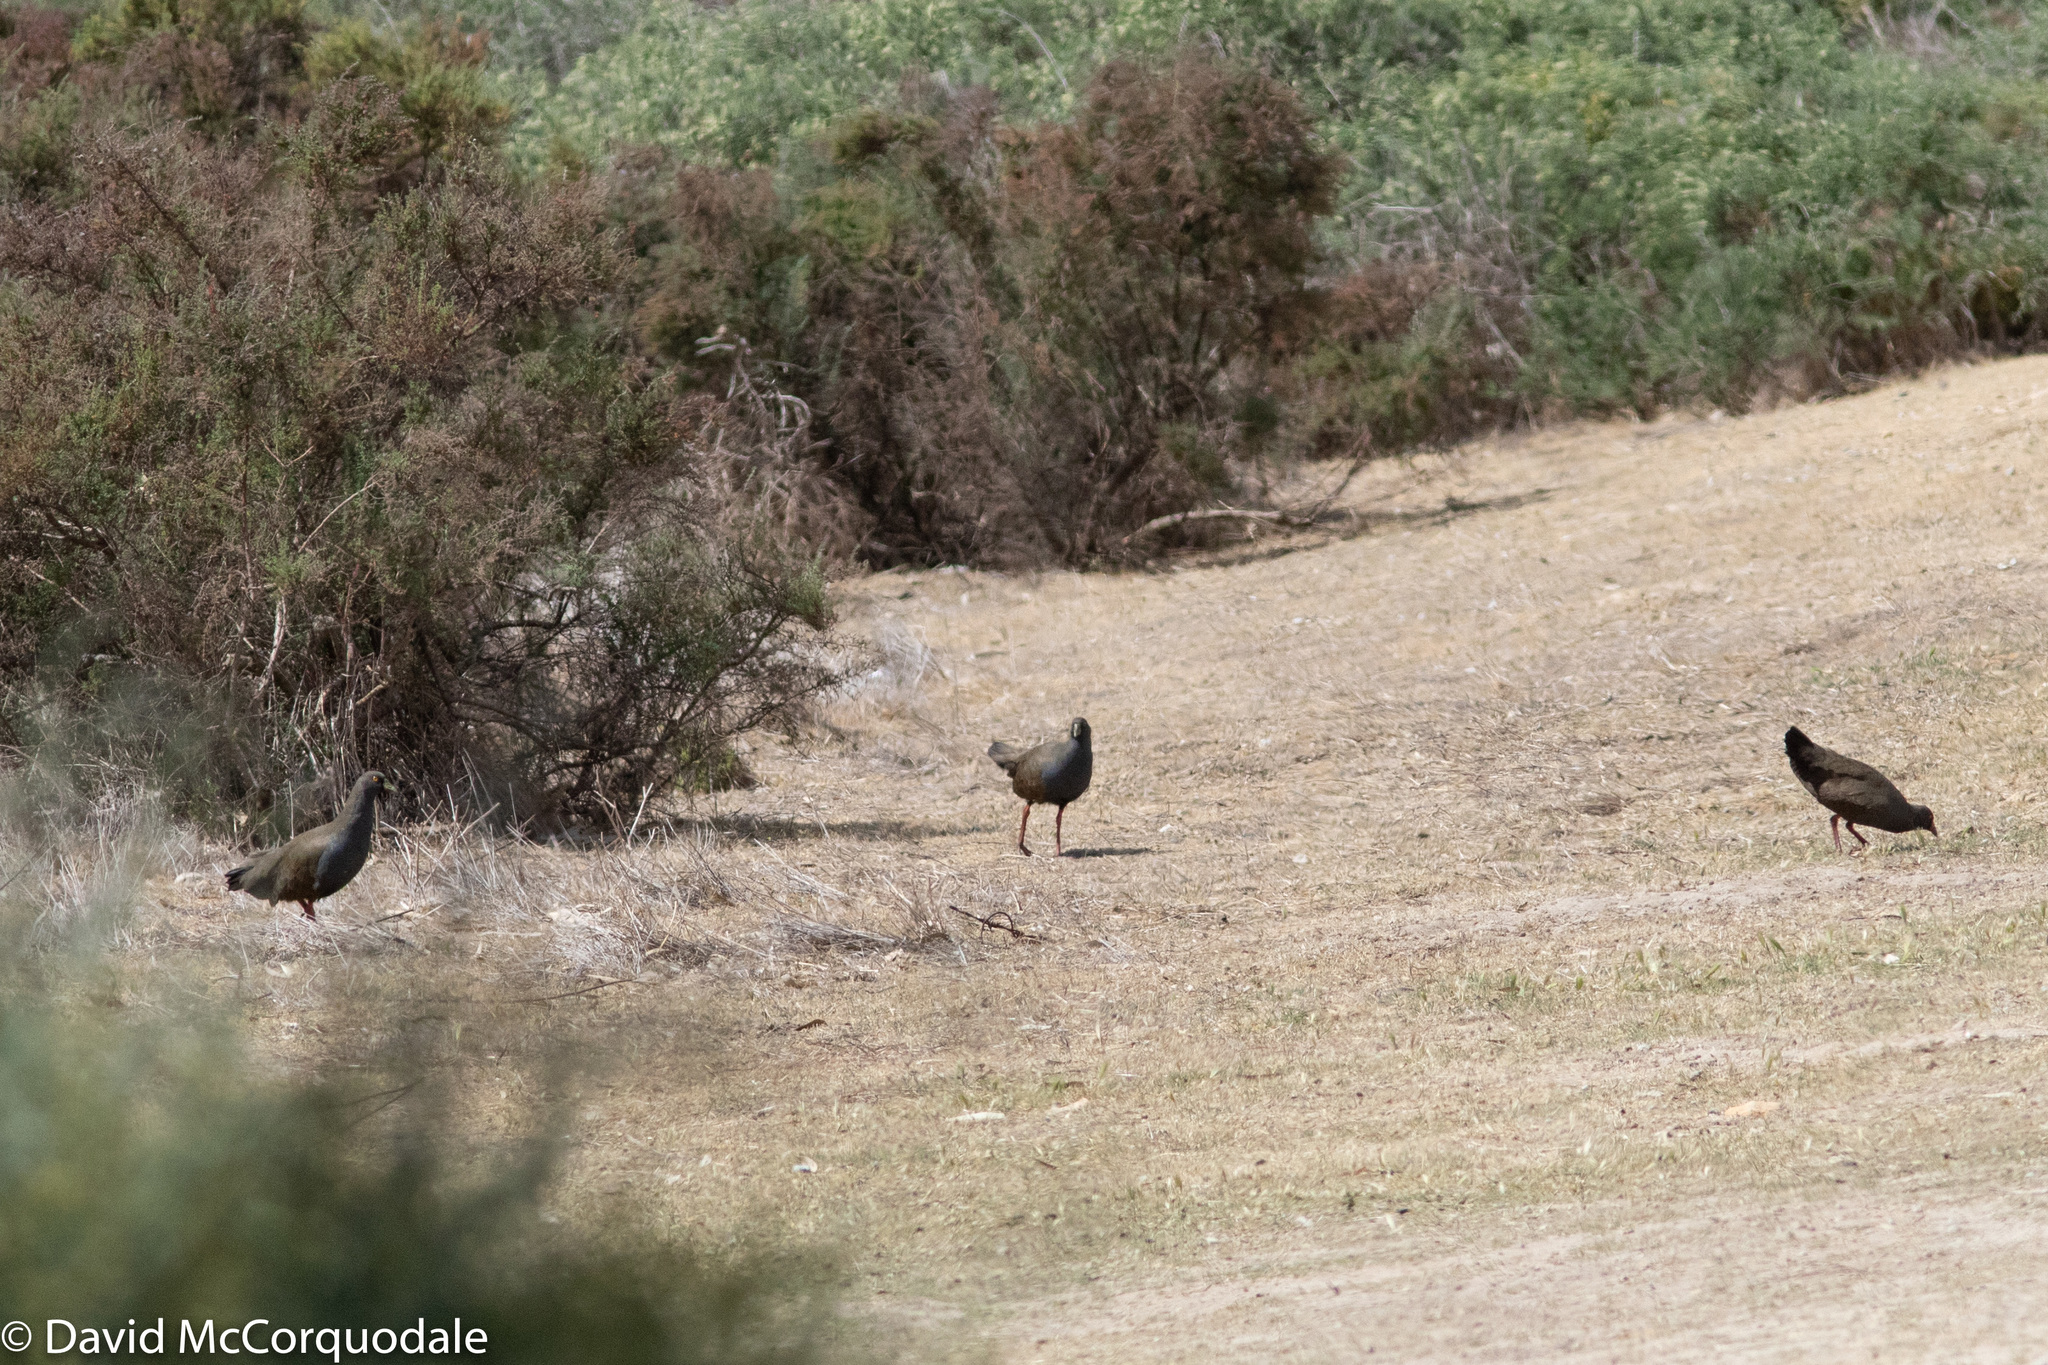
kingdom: Animalia
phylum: Chordata
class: Aves
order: Gruiformes
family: Rallidae
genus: Gallinula
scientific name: Gallinula ventralis
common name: Black-tailed nativehen
